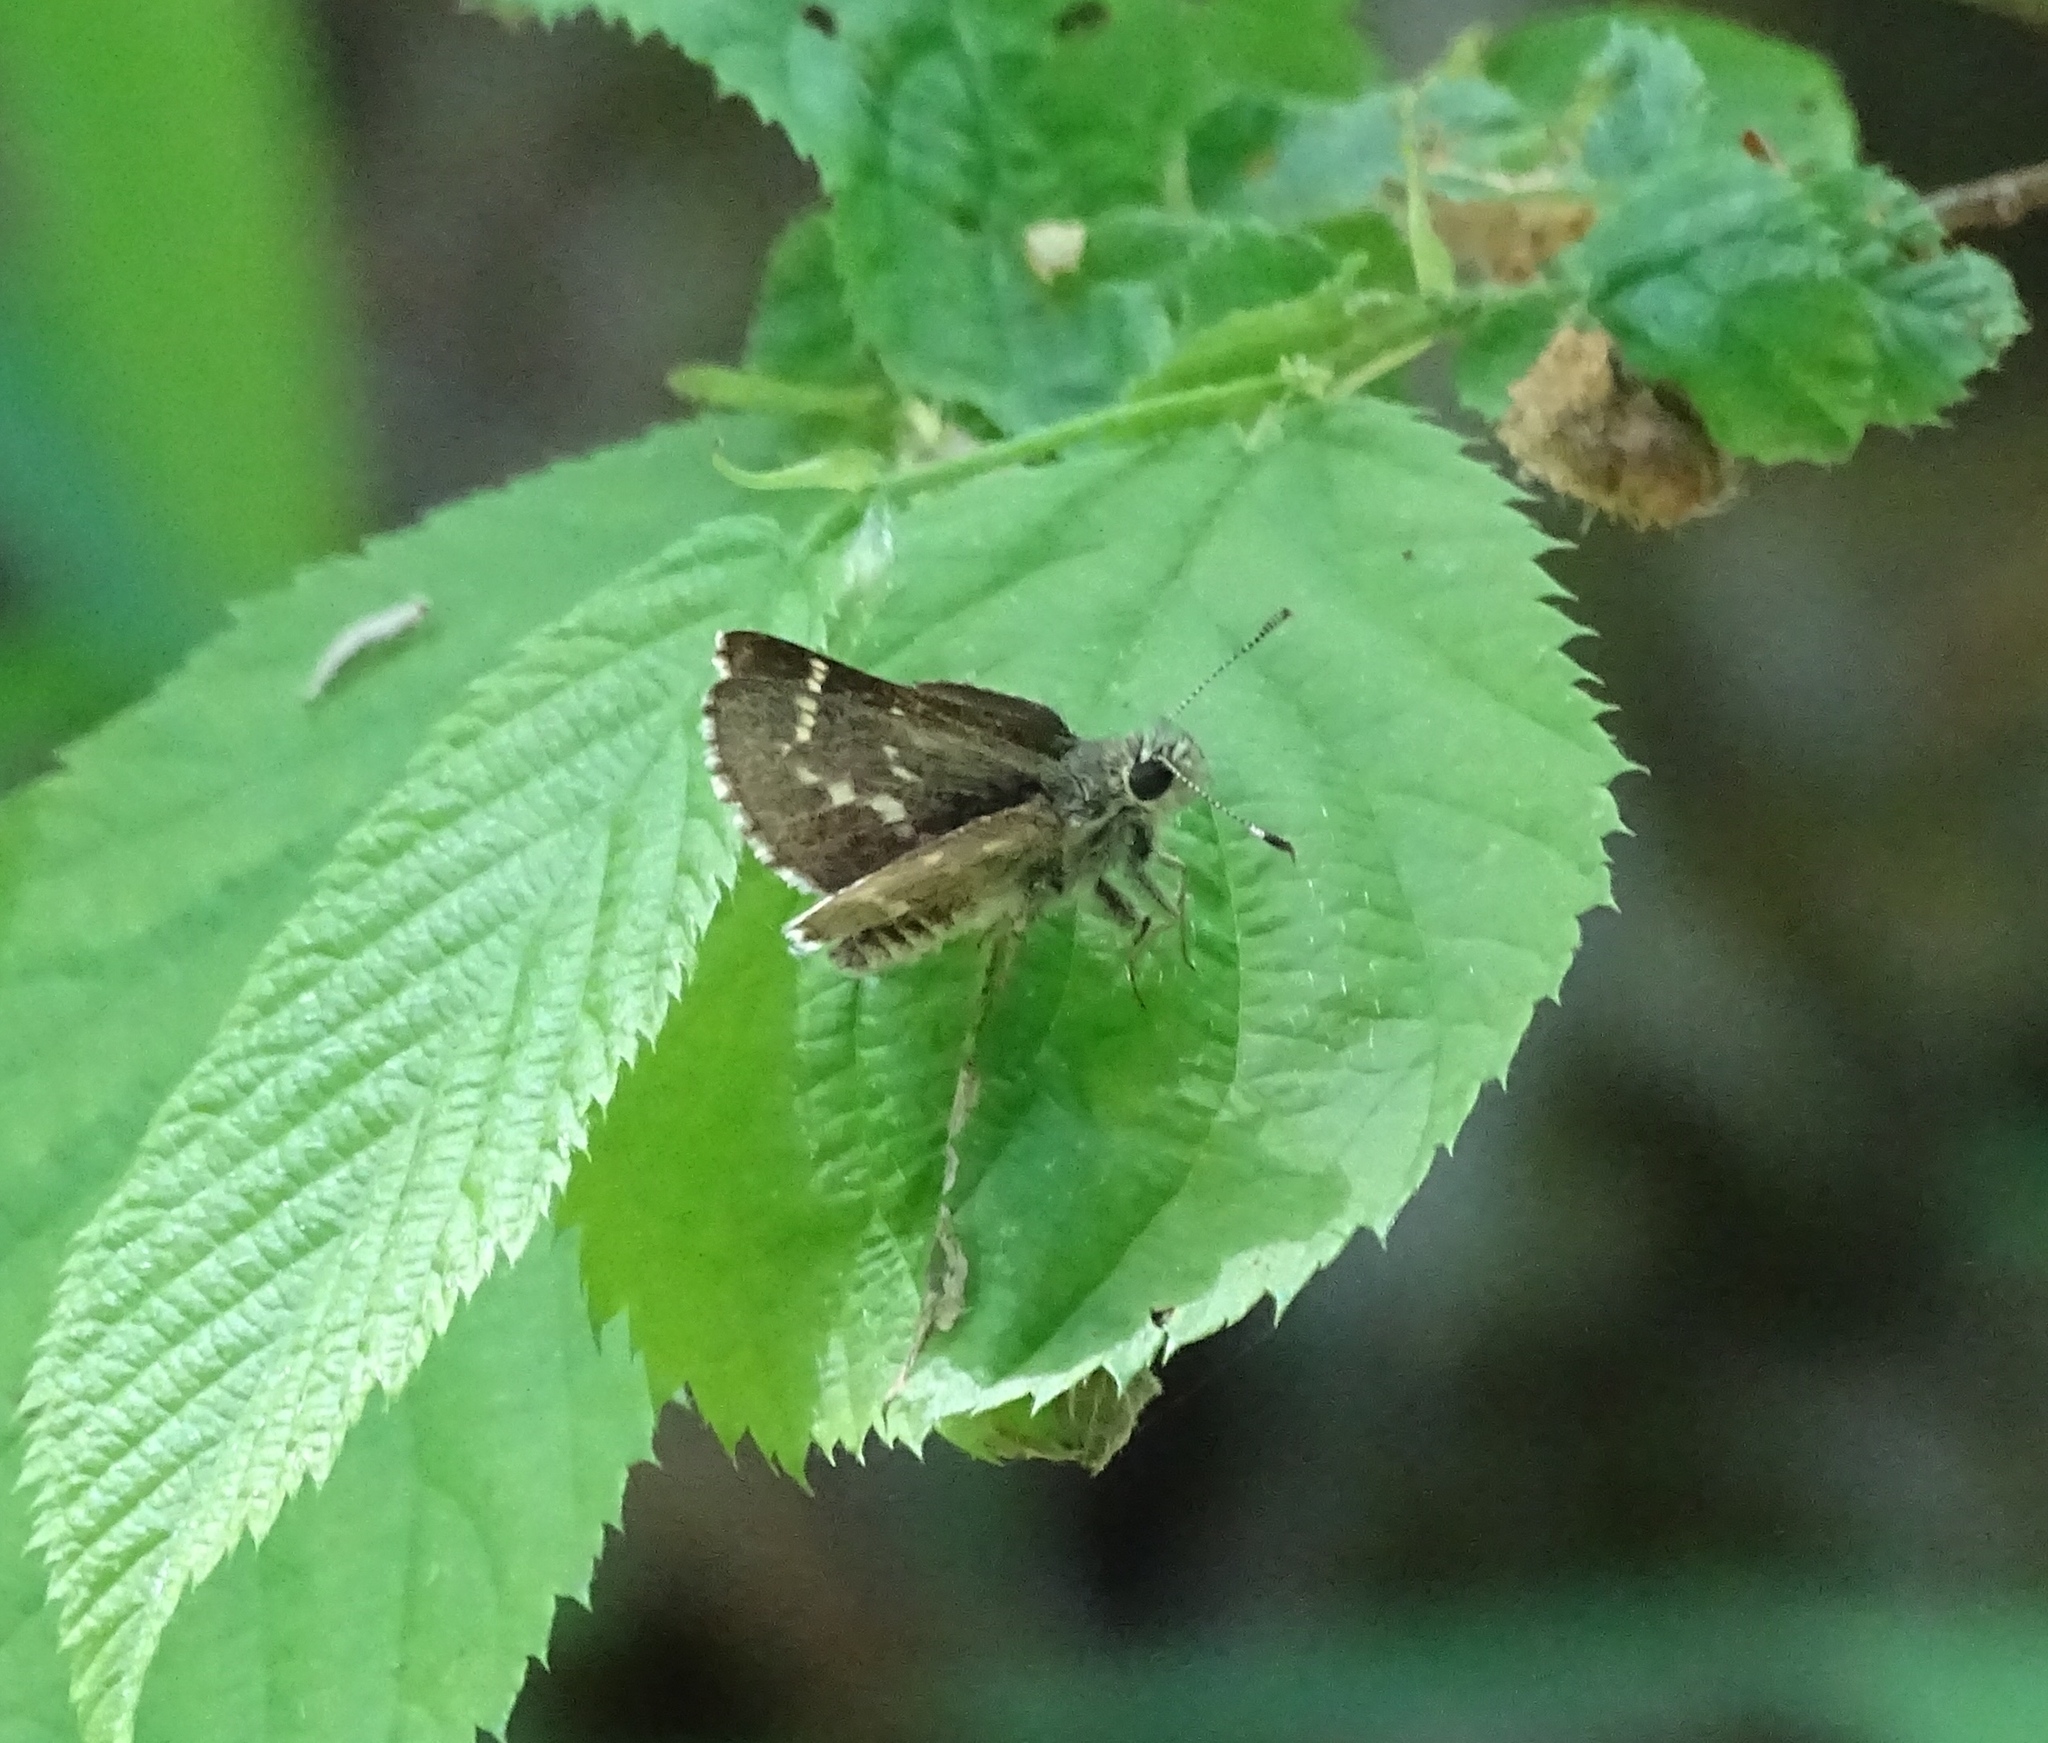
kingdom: Animalia
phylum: Arthropoda
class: Insecta
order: Lepidoptera
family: Hesperiidae
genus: Mastor
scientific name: Mastor hegon
